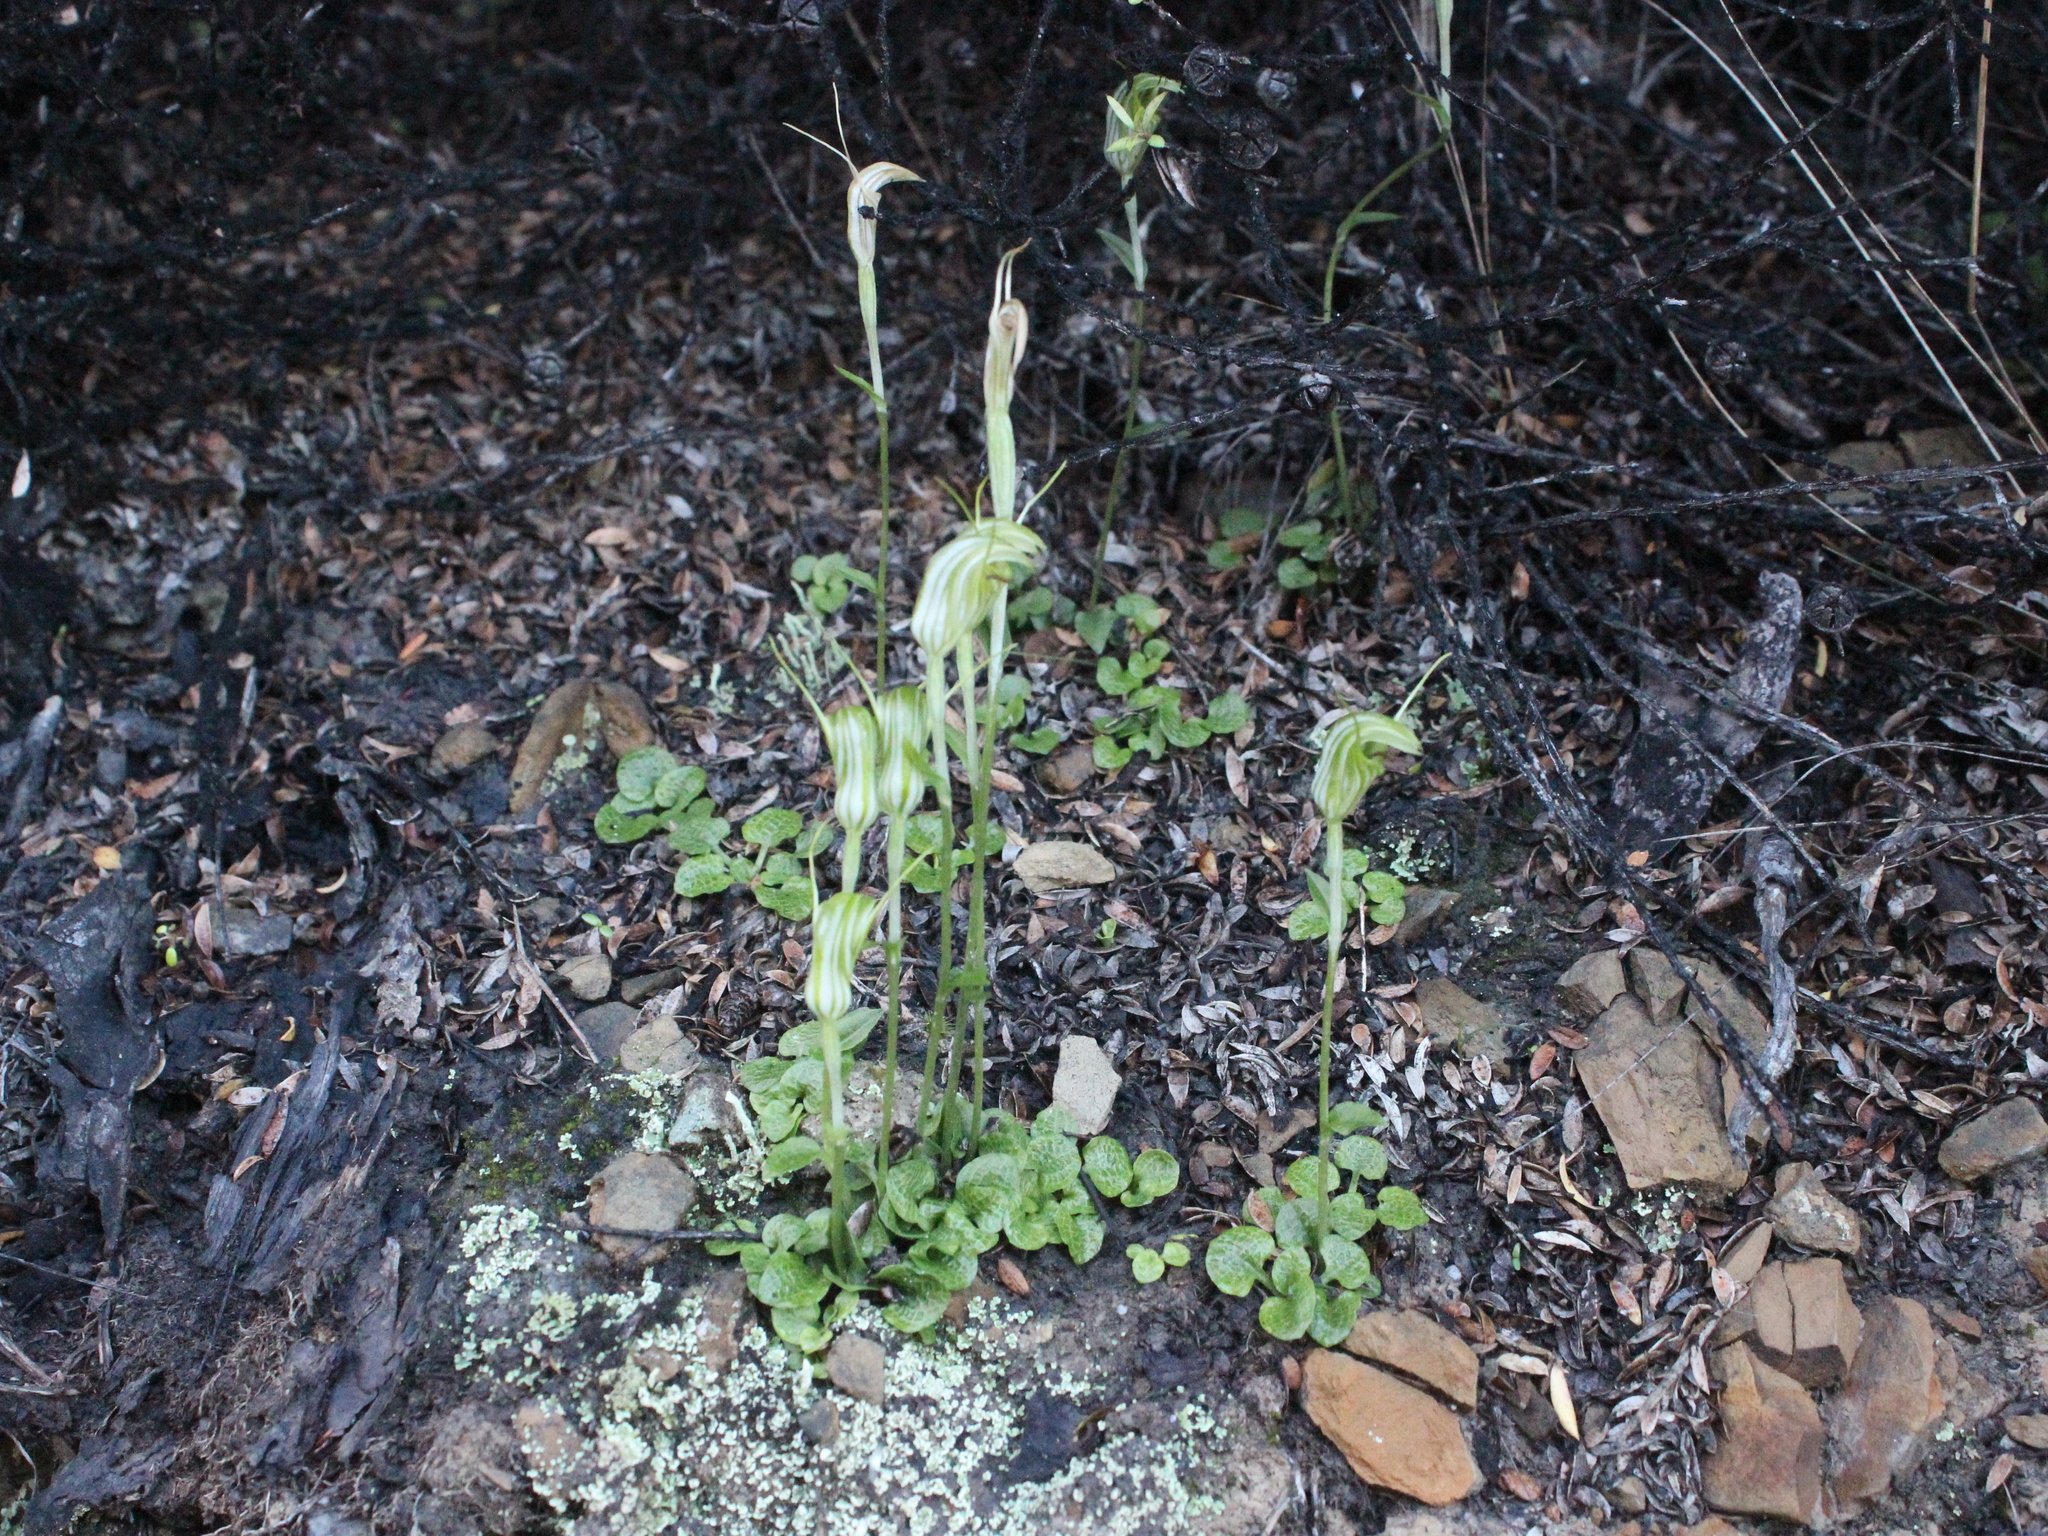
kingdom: Plantae
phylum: Tracheophyta
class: Liliopsida
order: Asparagales
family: Orchidaceae
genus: Pterostylis
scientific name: Pterostylis trullifolia
